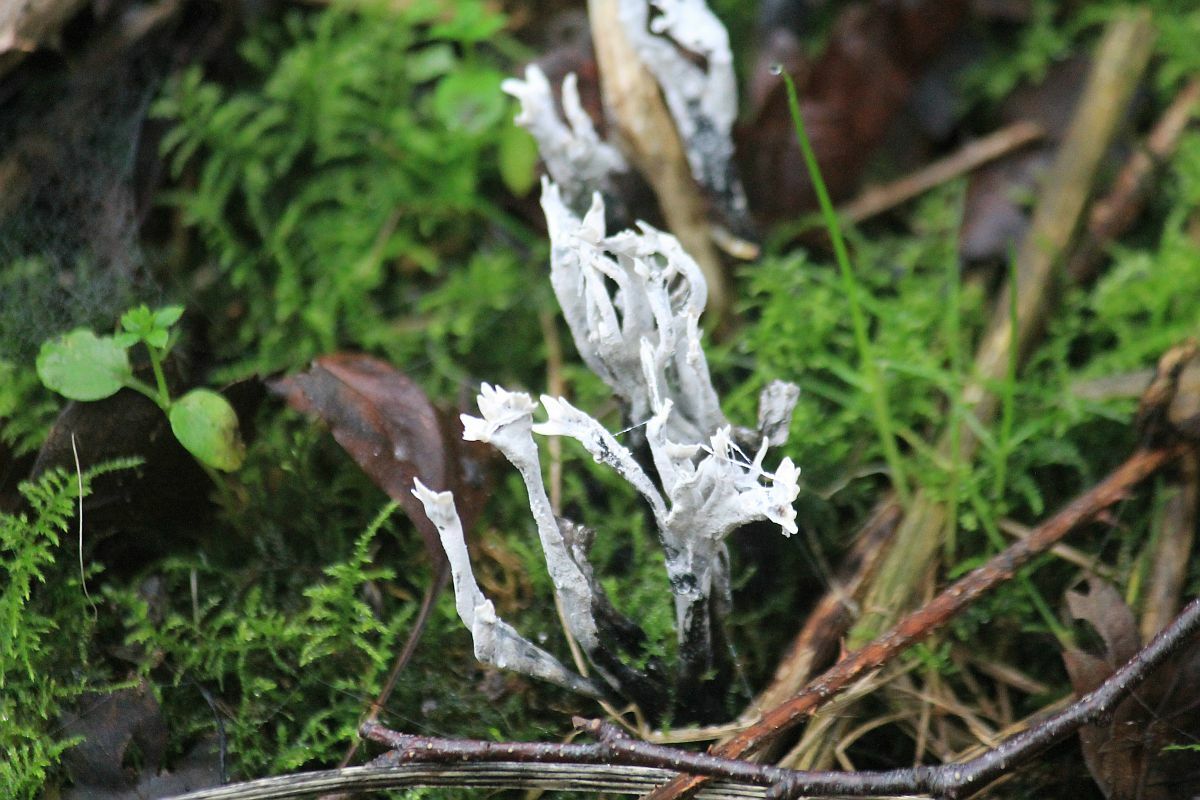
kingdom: Fungi
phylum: Ascomycota
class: Sordariomycetes
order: Xylariales
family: Xylariaceae
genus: Xylaria
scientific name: Xylaria hypoxylon
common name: Candle-snuff fungus
